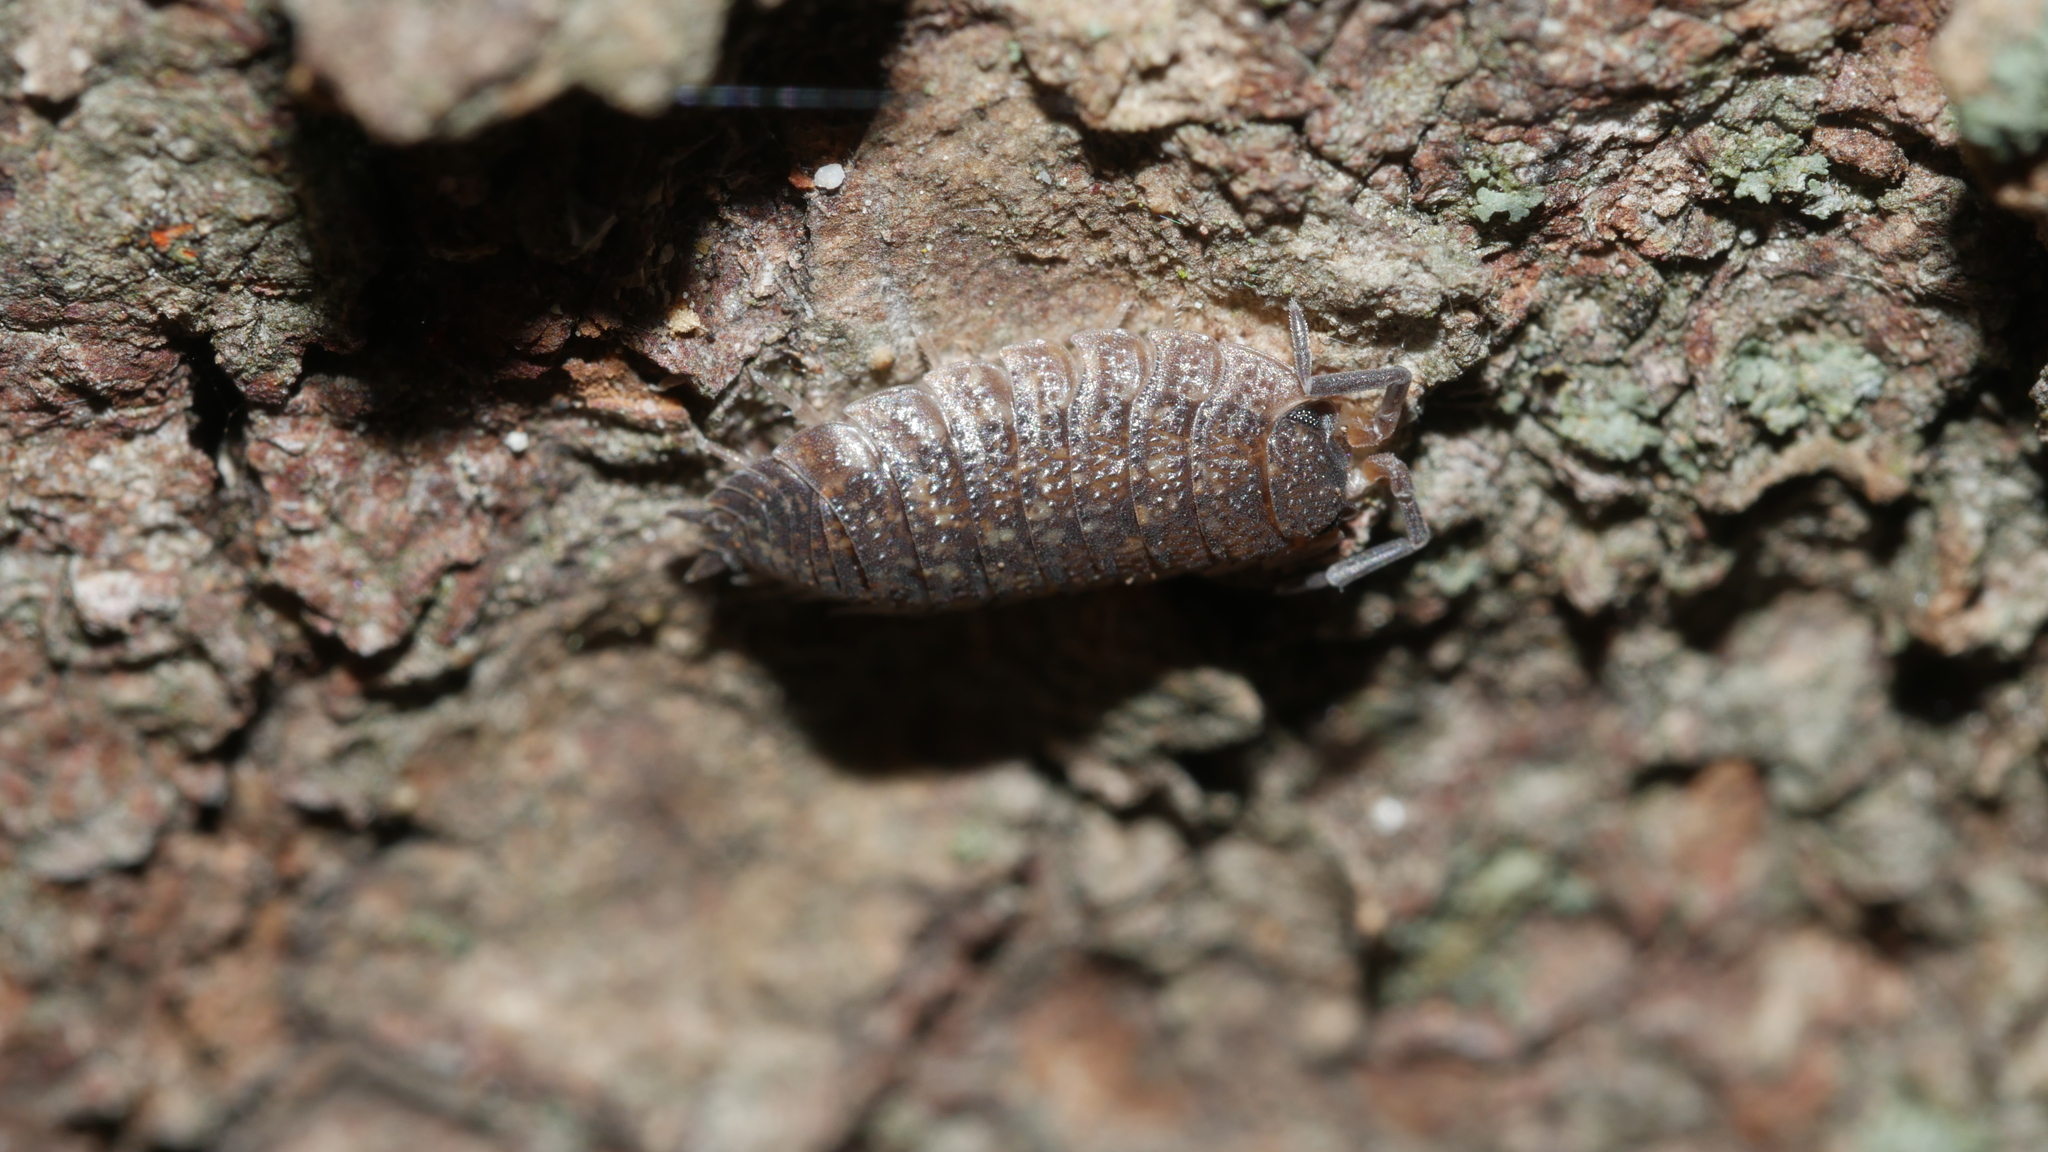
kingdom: Animalia
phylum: Arthropoda
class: Malacostraca
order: Isopoda
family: Porcellionidae
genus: Porcellio
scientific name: Porcellio scaber
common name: Common rough woodlouse
